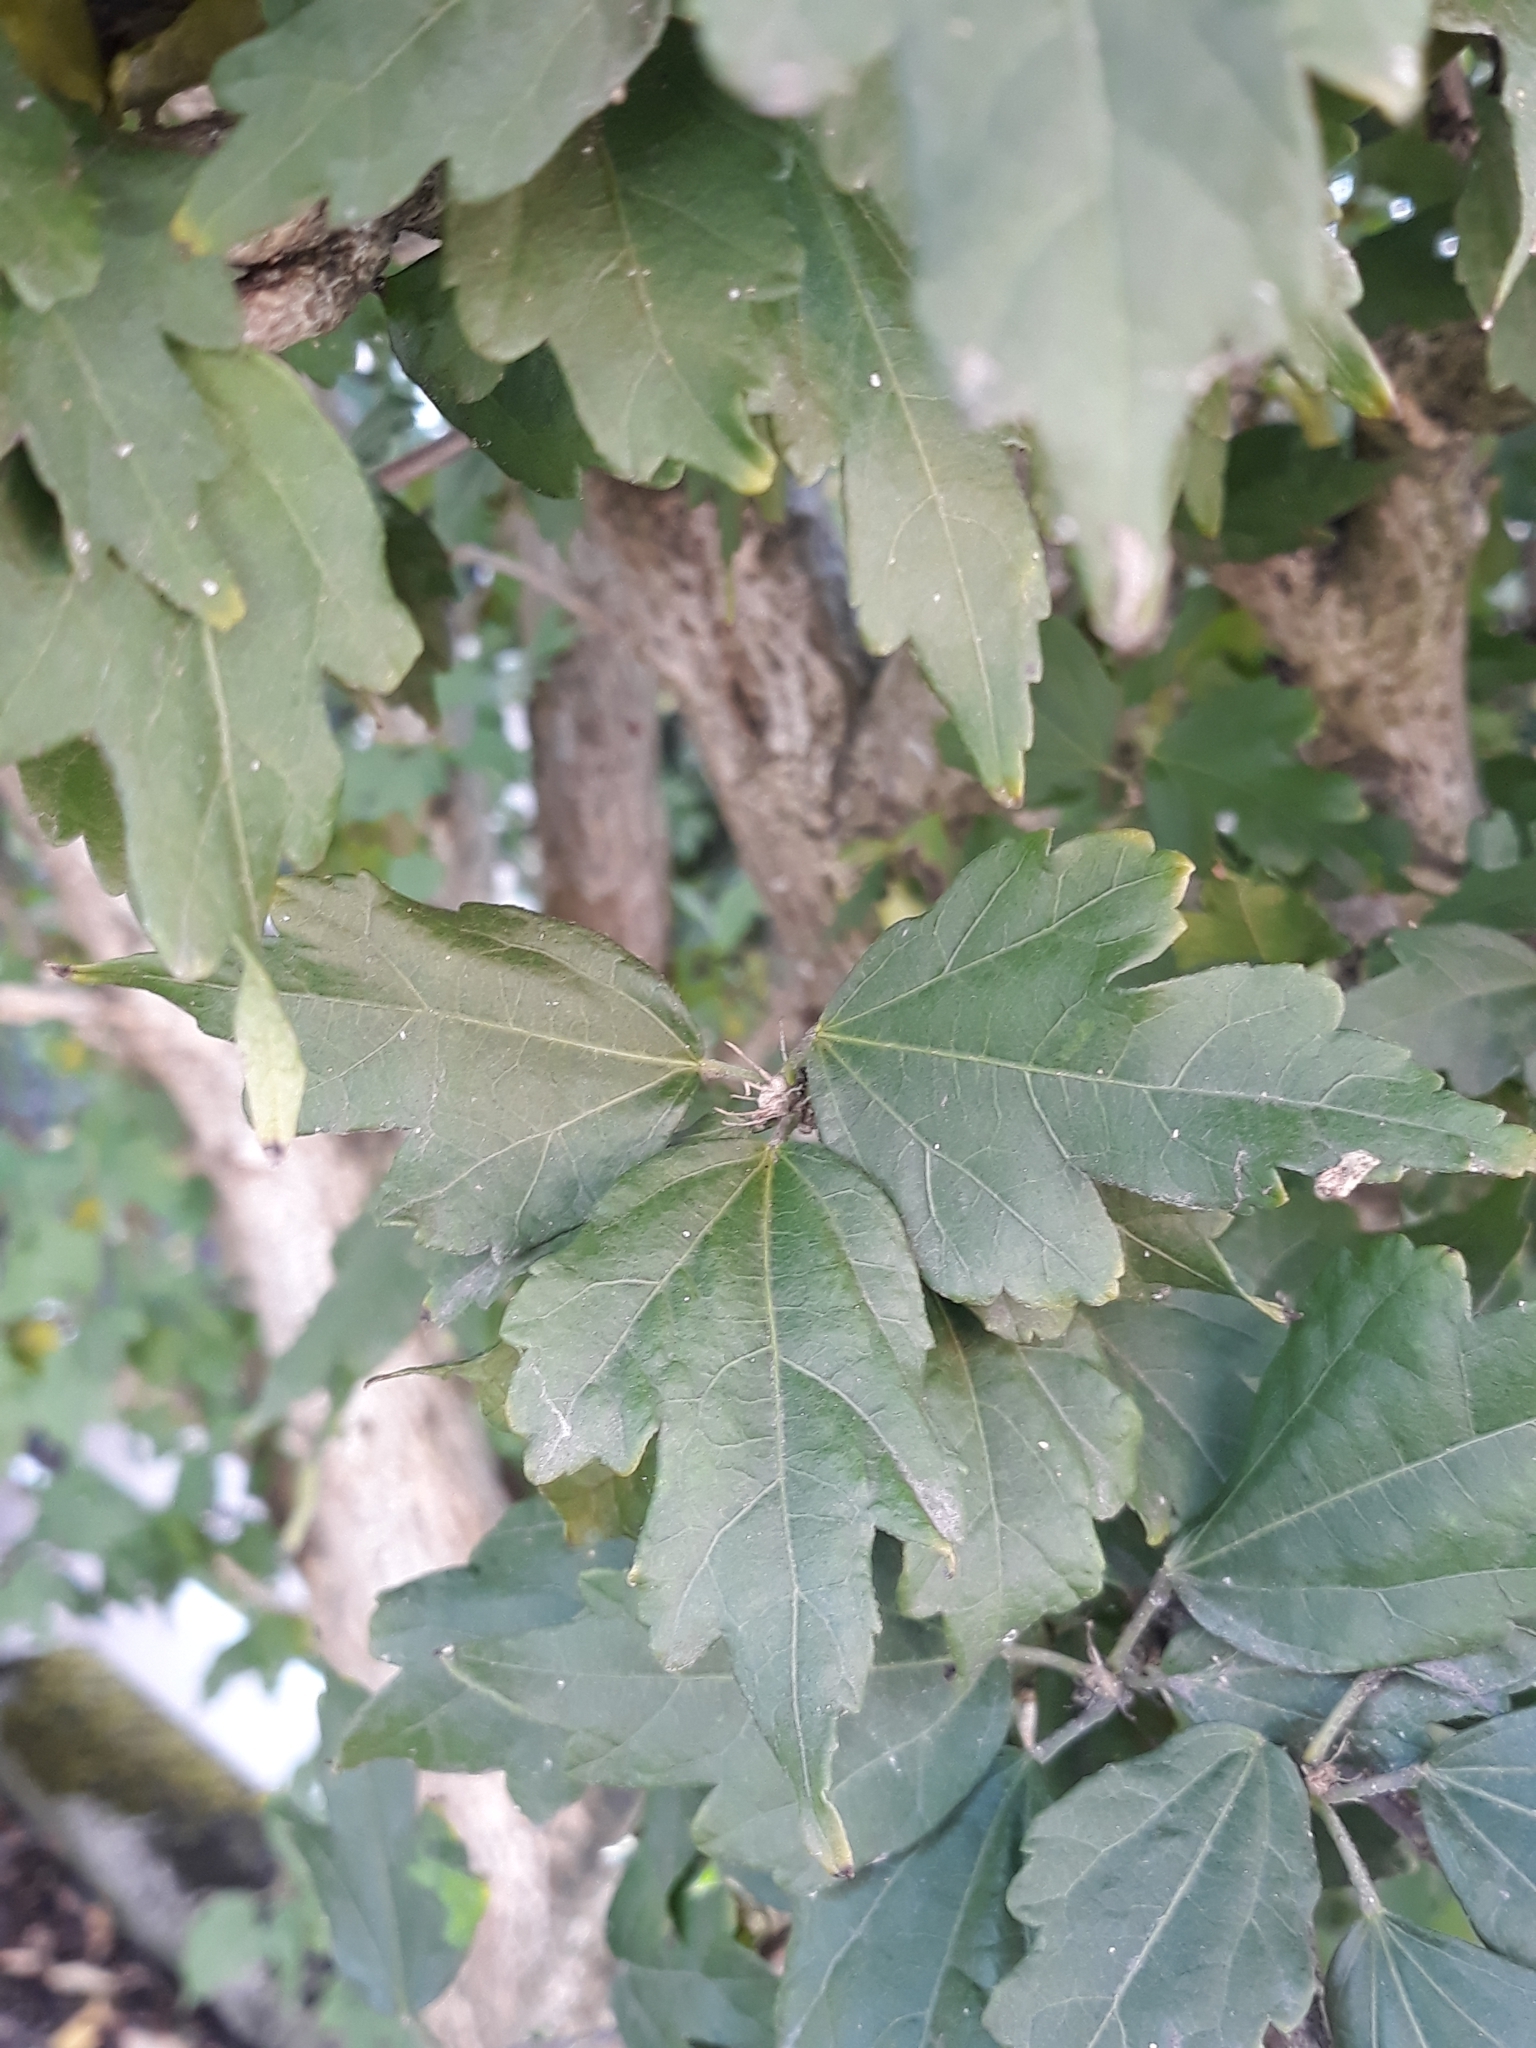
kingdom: Plantae
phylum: Tracheophyta
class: Magnoliopsida
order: Malvales
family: Malvaceae
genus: Hibiscus
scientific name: Hibiscus syriacus
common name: Syrian ketmia
